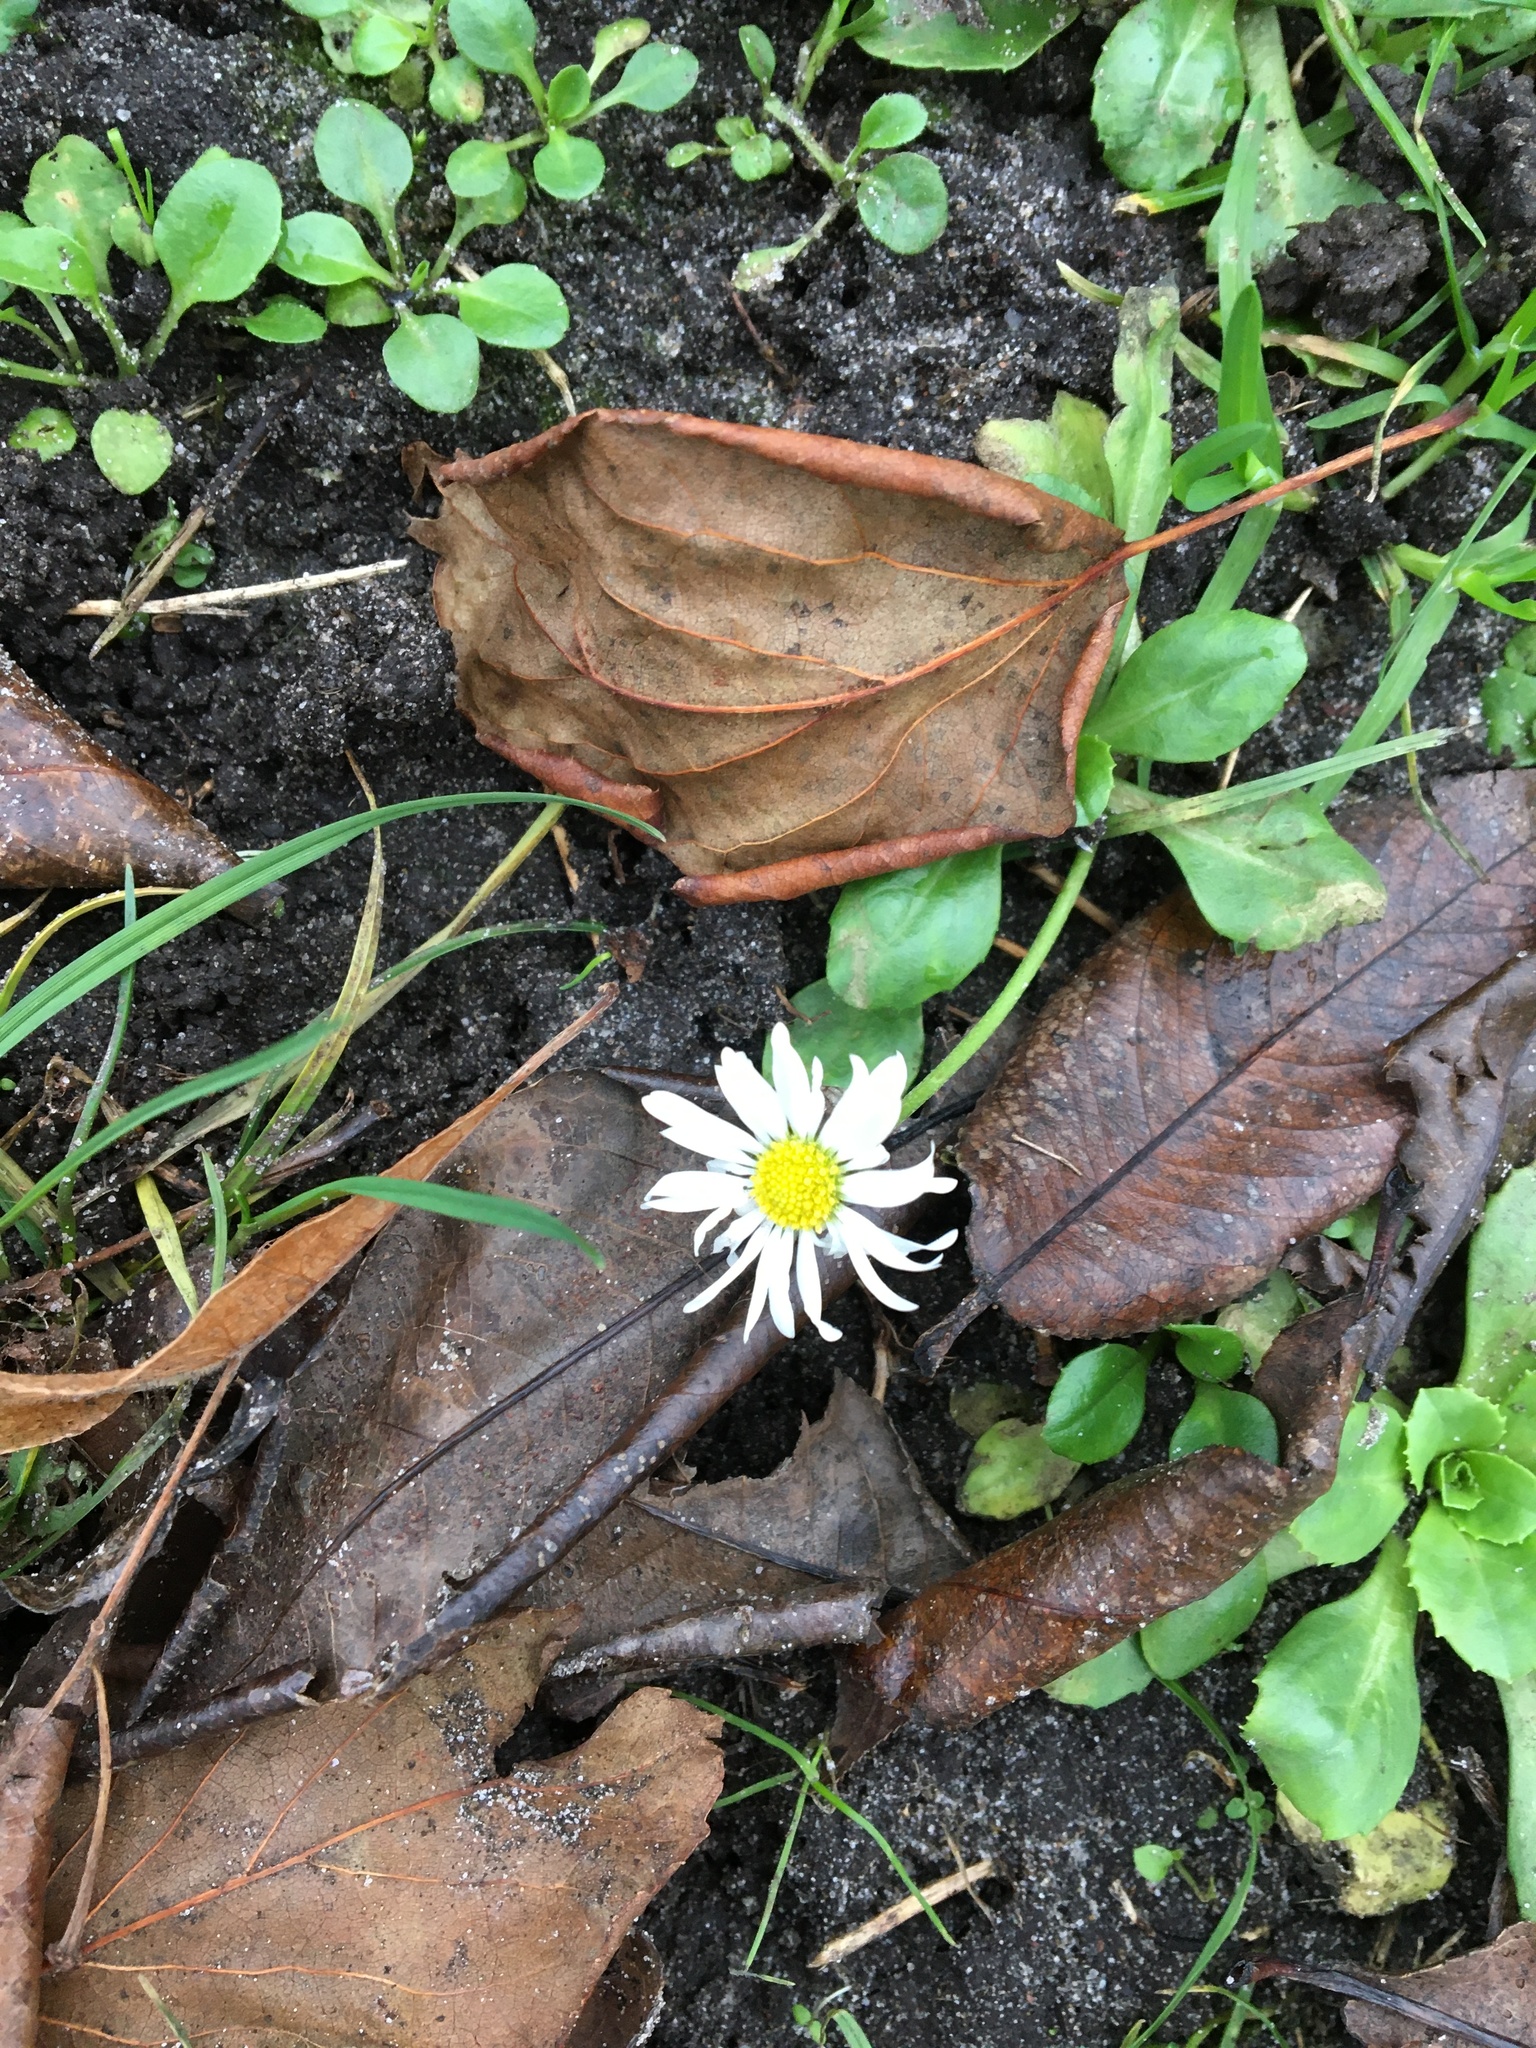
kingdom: Plantae
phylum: Tracheophyta
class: Magnoliopsida
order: Asterales
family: Asteraceae
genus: Bellis
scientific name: Bellis perennis
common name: Lawndaisy
